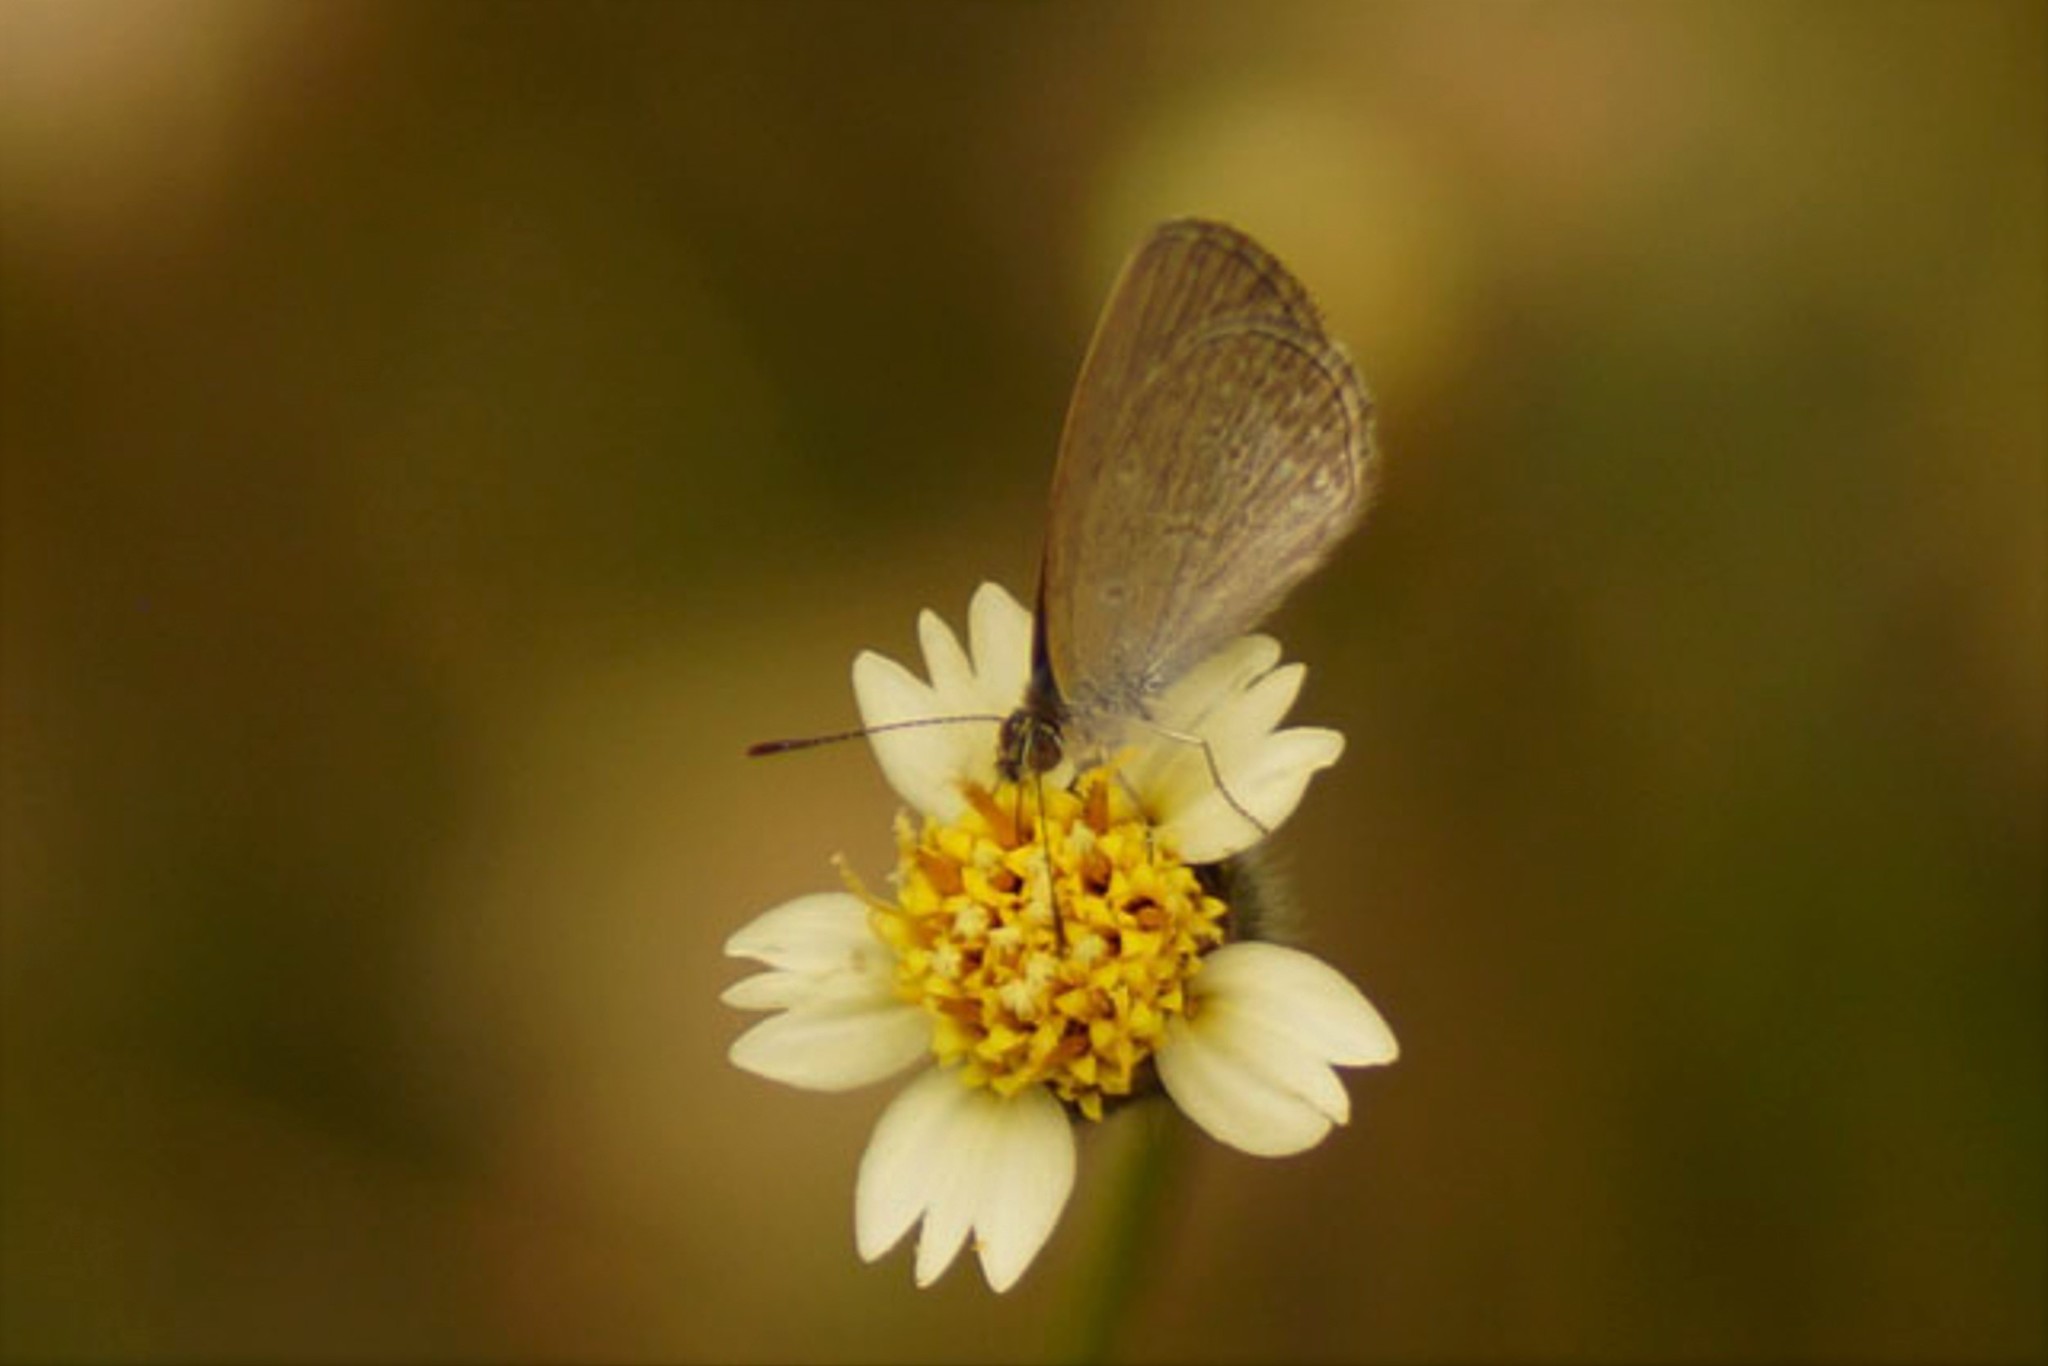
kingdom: Animalia
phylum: Arthropoda
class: Insecta
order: Lepidoptera
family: Lycaenidae
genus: Zizina
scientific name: Zizina labradus
